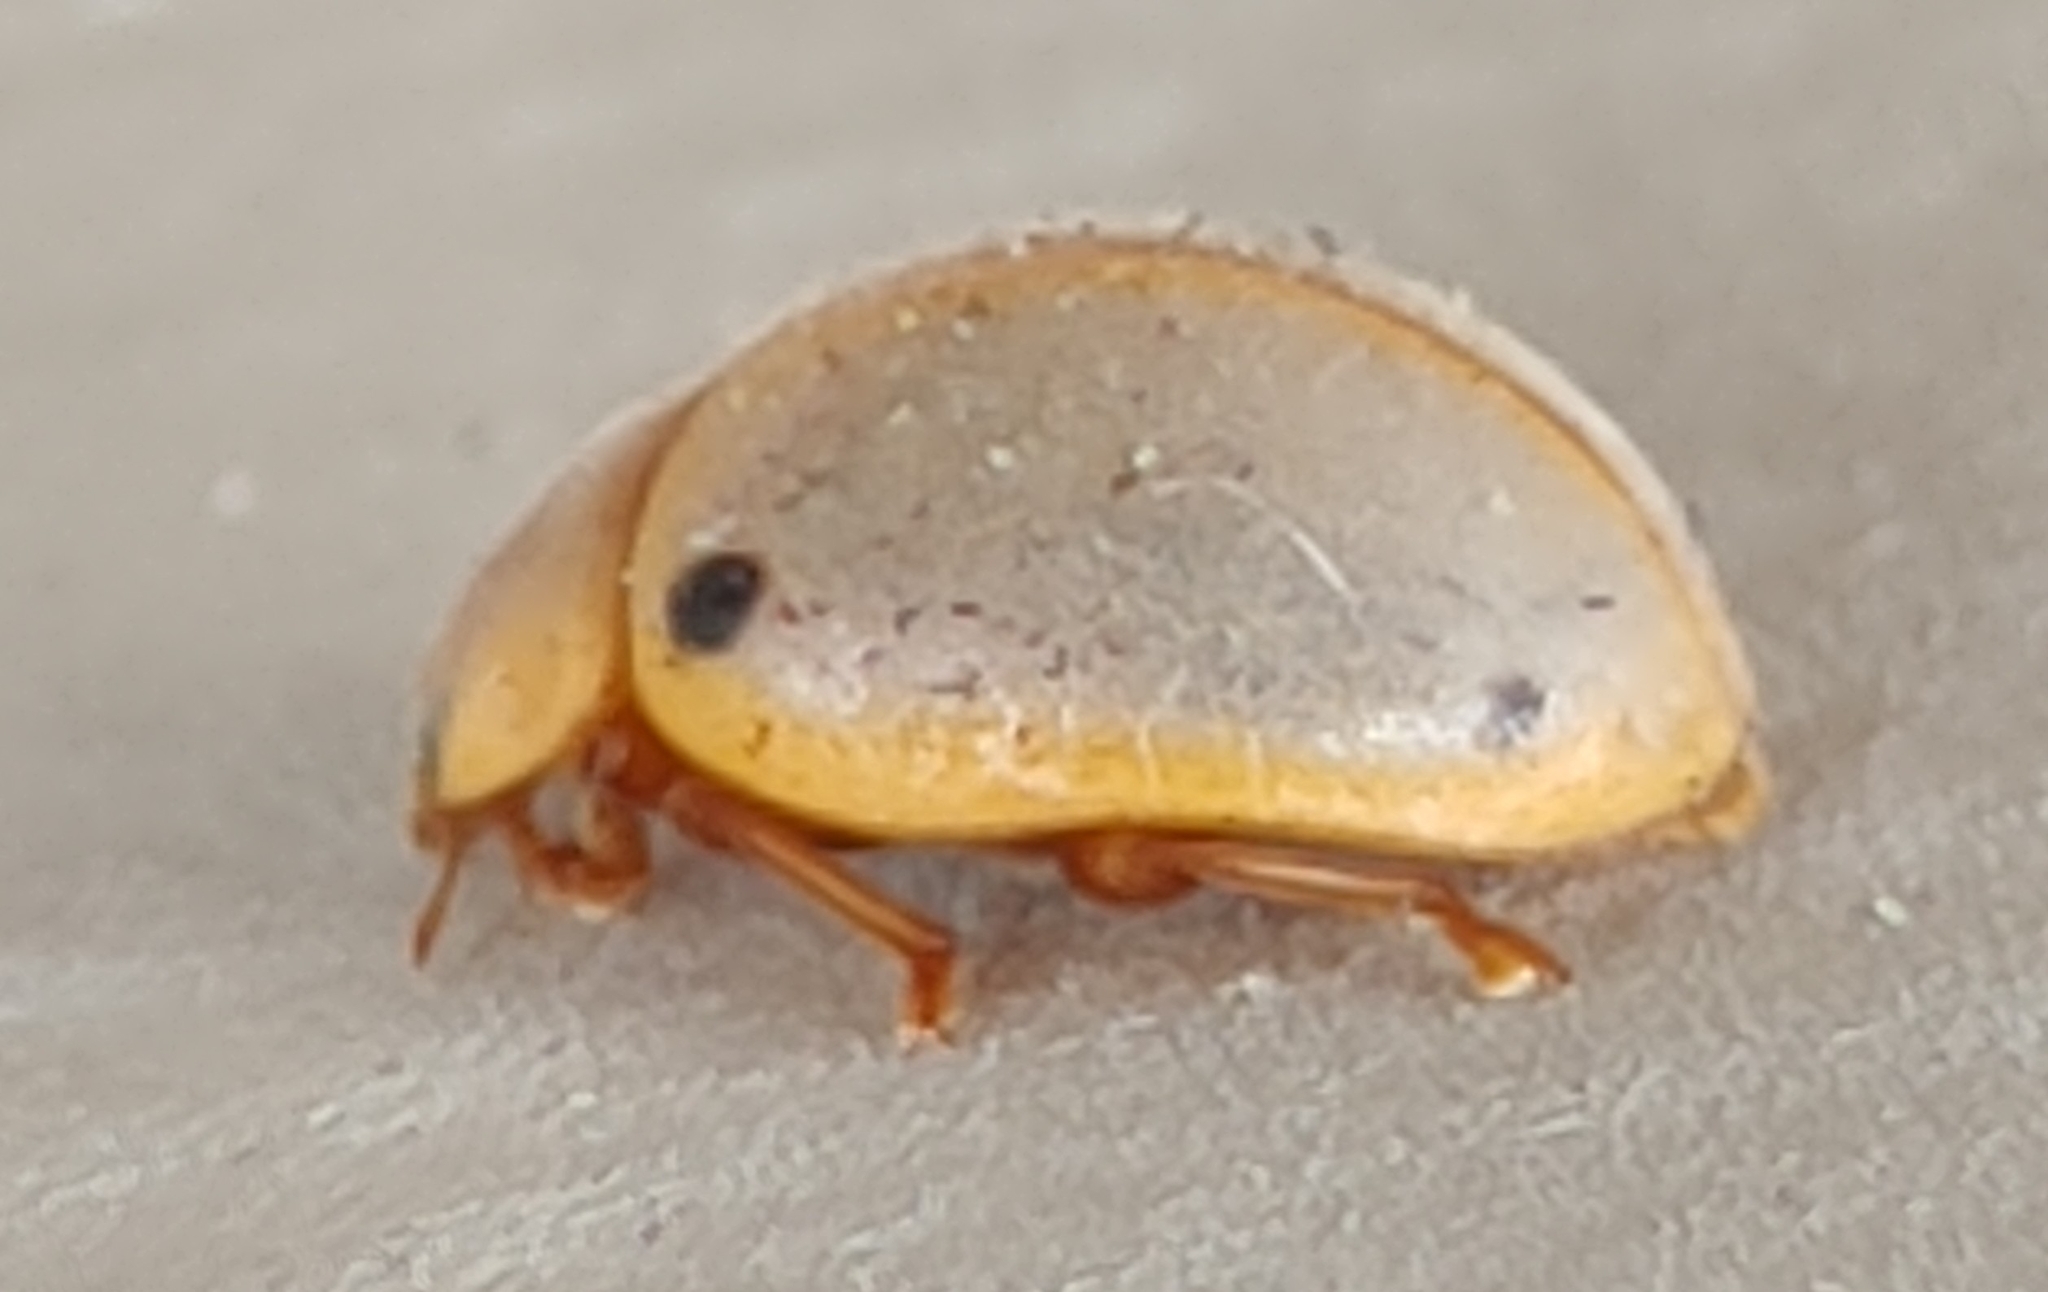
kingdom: Animalia
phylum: Arthropoda
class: Insecta
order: Coleoptera
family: Coccinellidae
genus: Eupalea
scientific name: Eupalea
